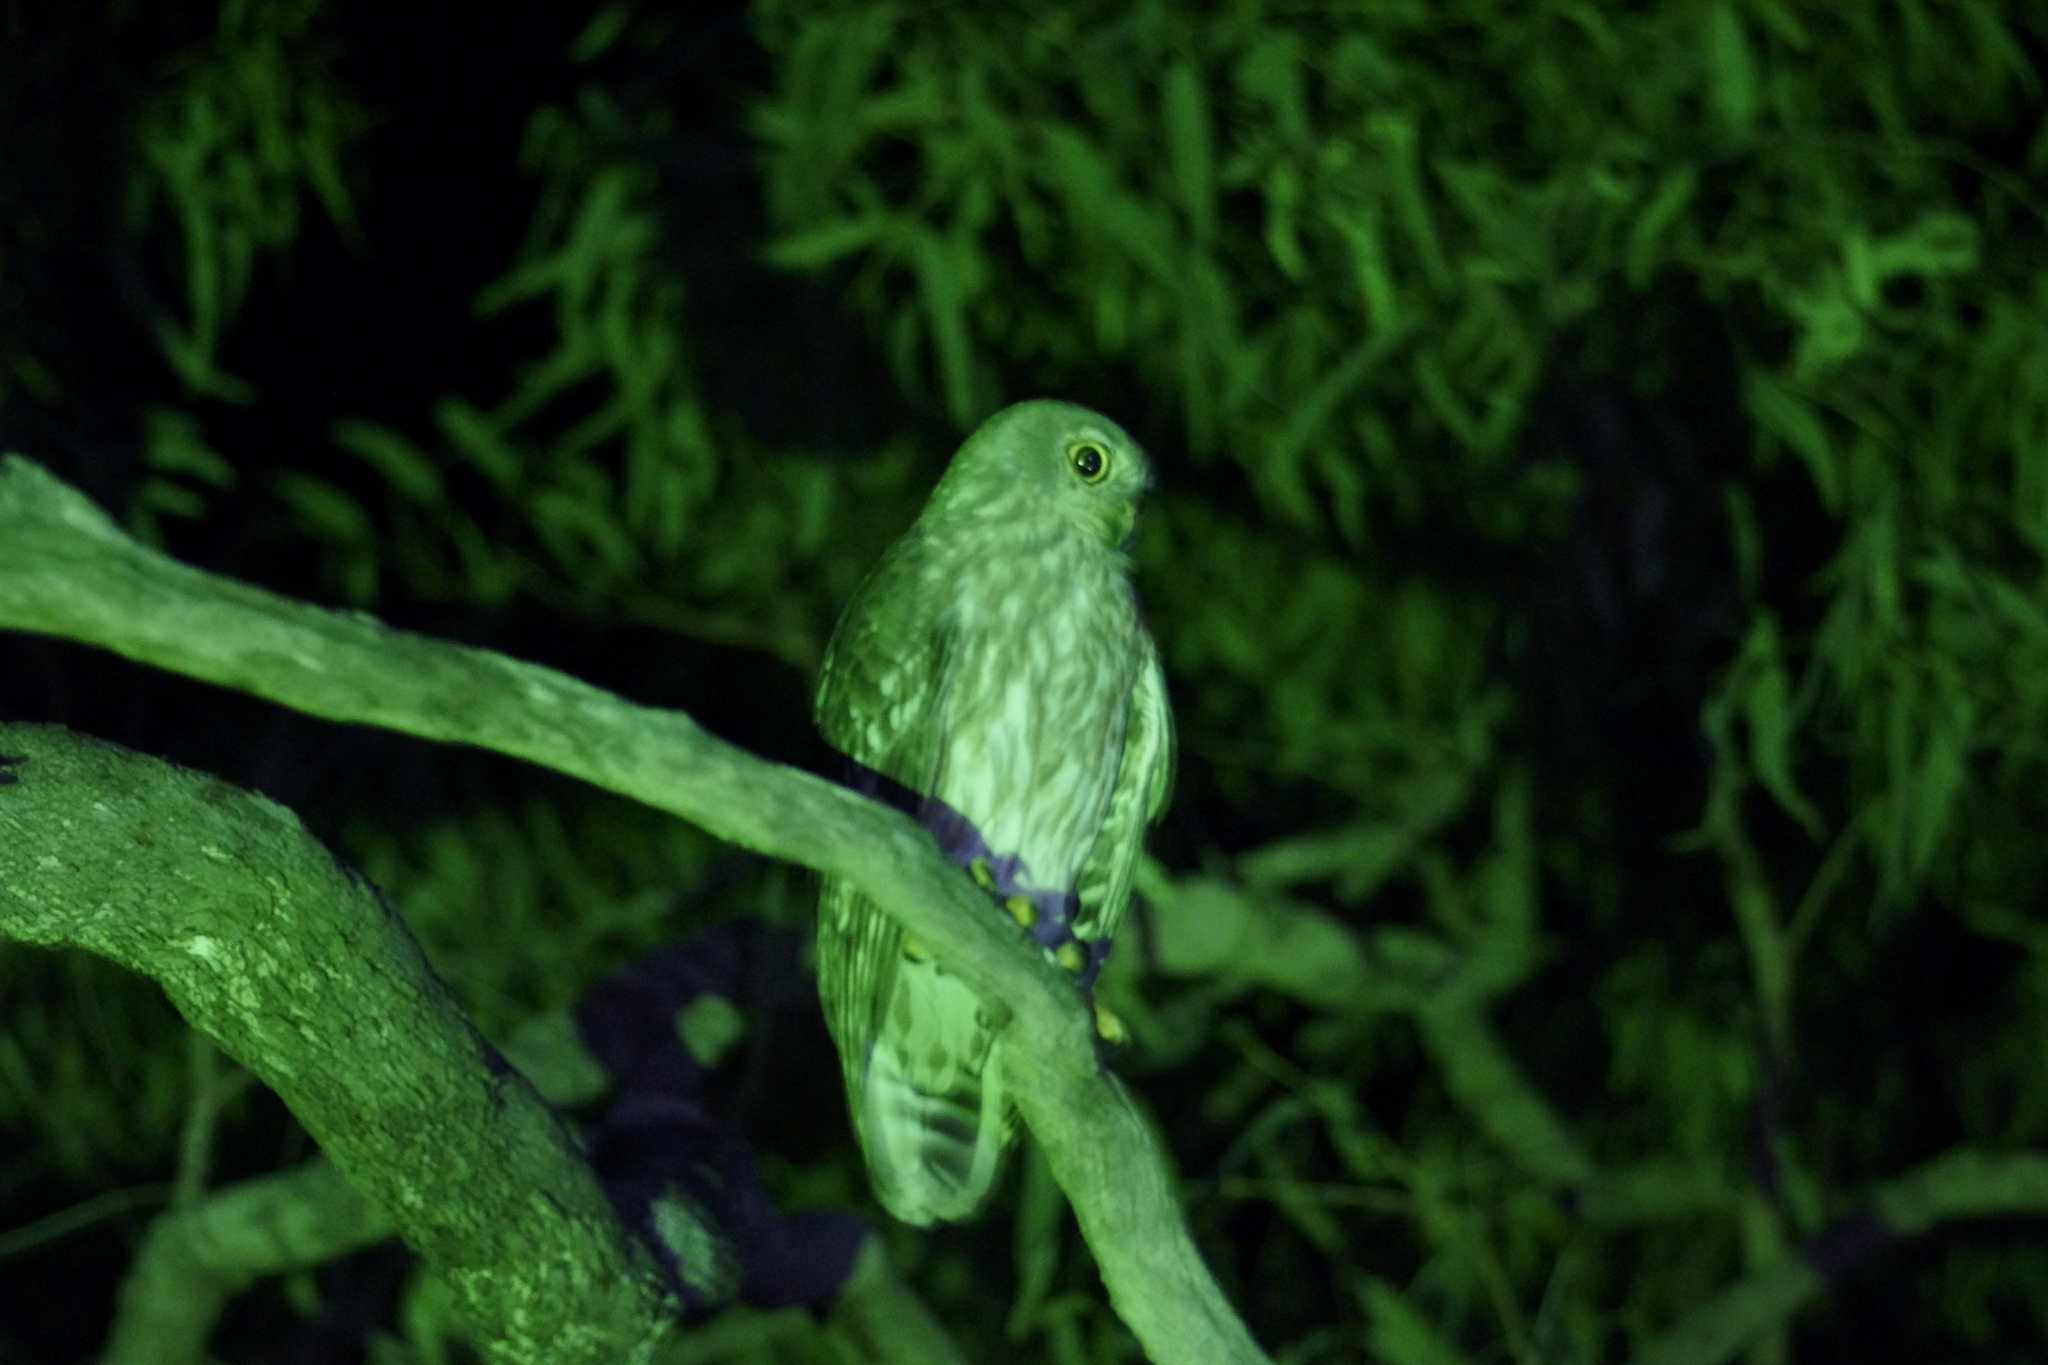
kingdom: Animalia
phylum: Chordata
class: Aves
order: Strigiformes
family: Strigidae
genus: Ninox
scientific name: Ninox connivens
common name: Barking owl
